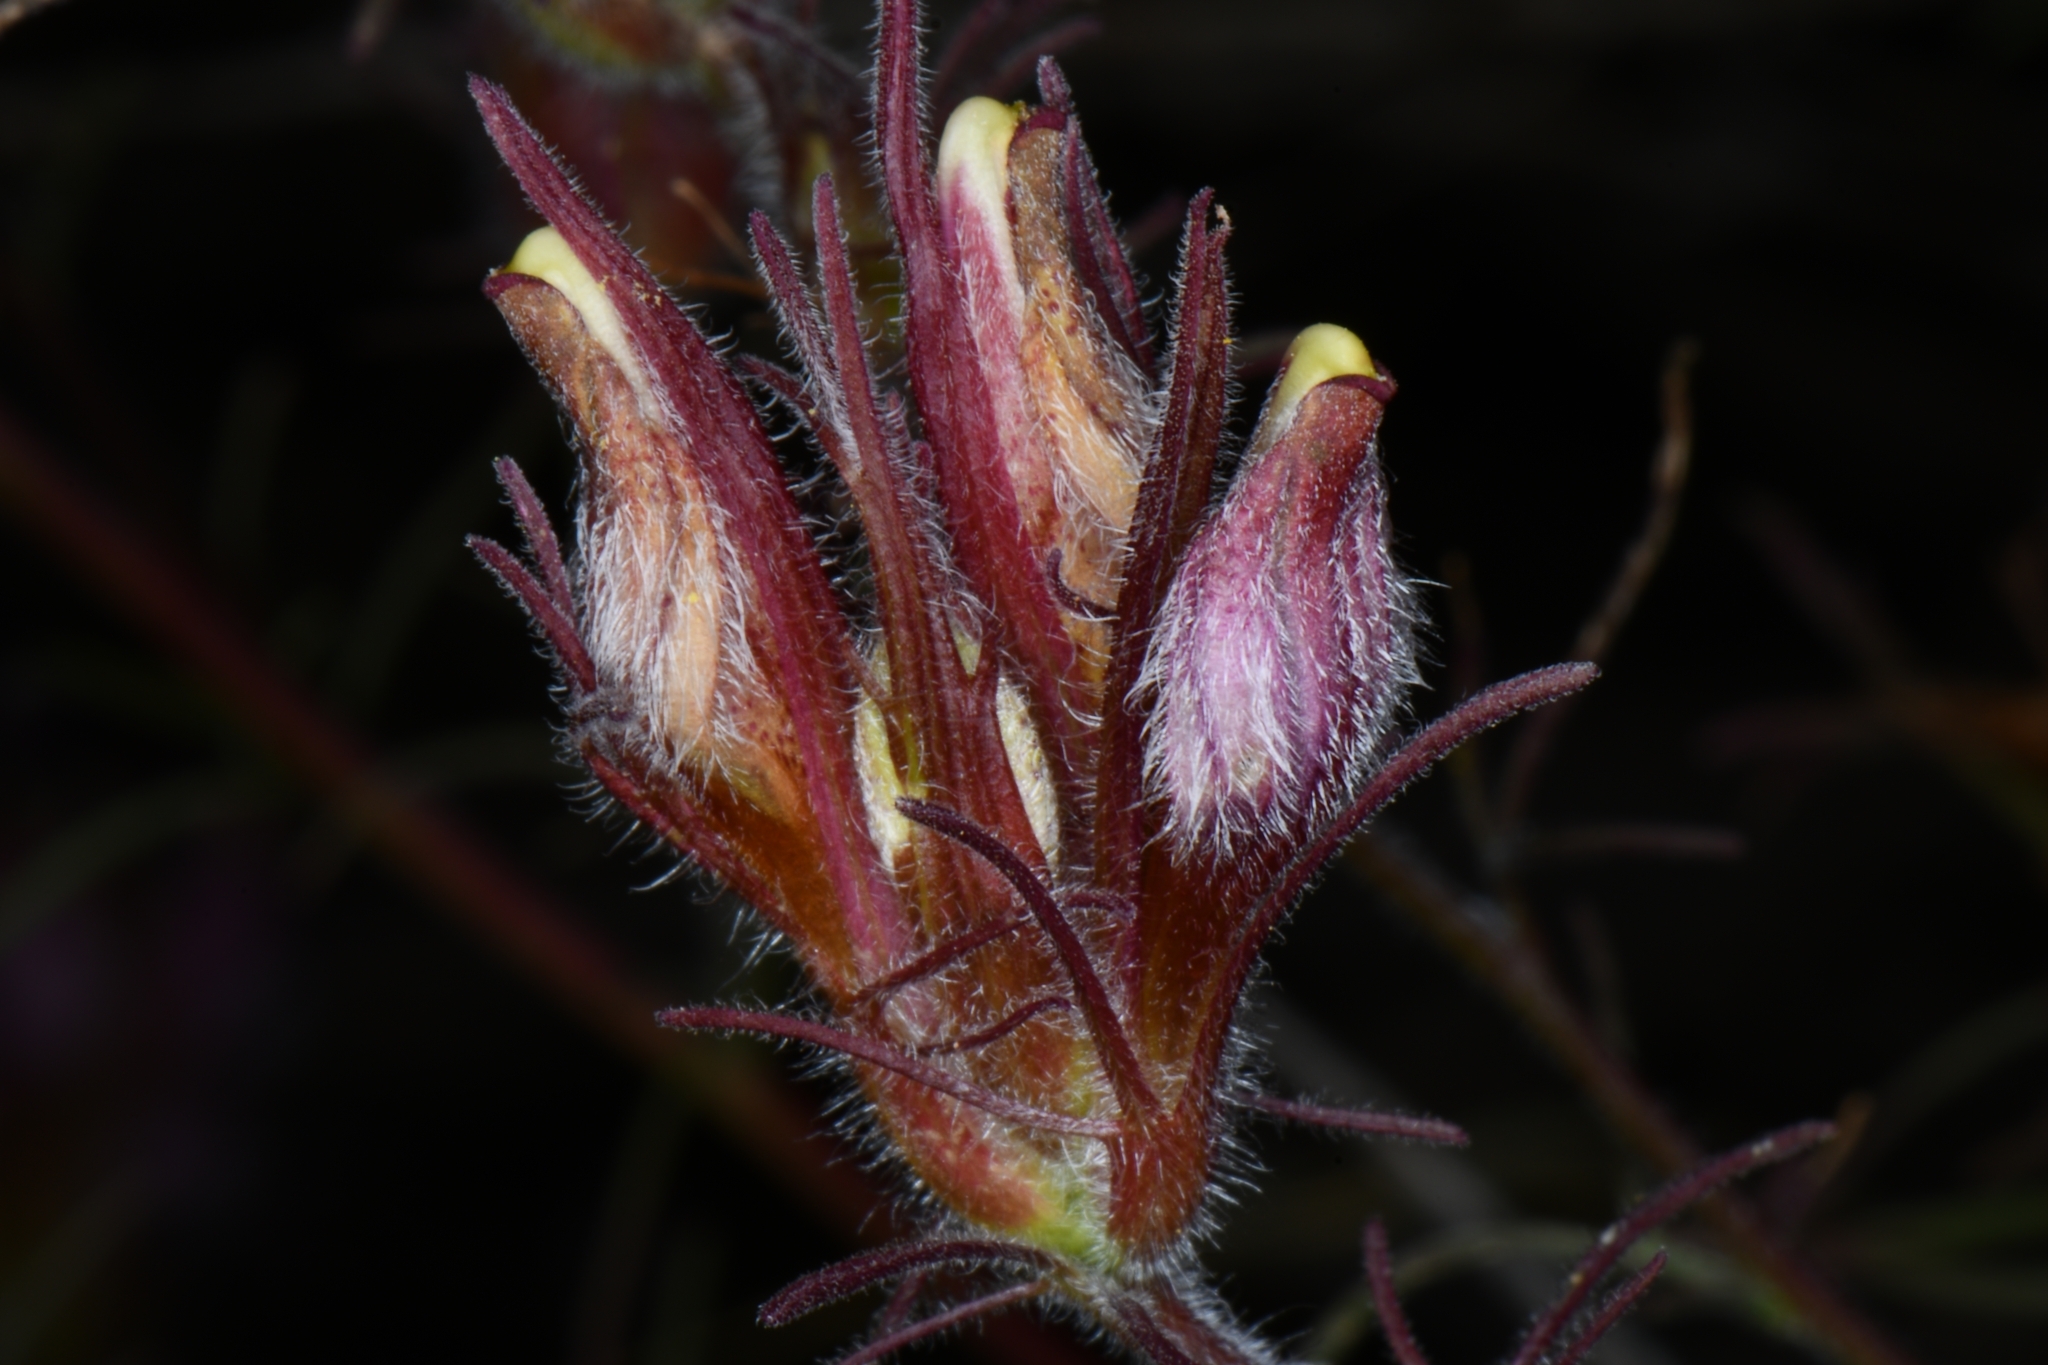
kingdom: Plantae
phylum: Tracheophyta
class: Magnoliopsida
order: Lamiales
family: Orobanchaceae
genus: Cordylanthus
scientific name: Cordylanthus kingii
